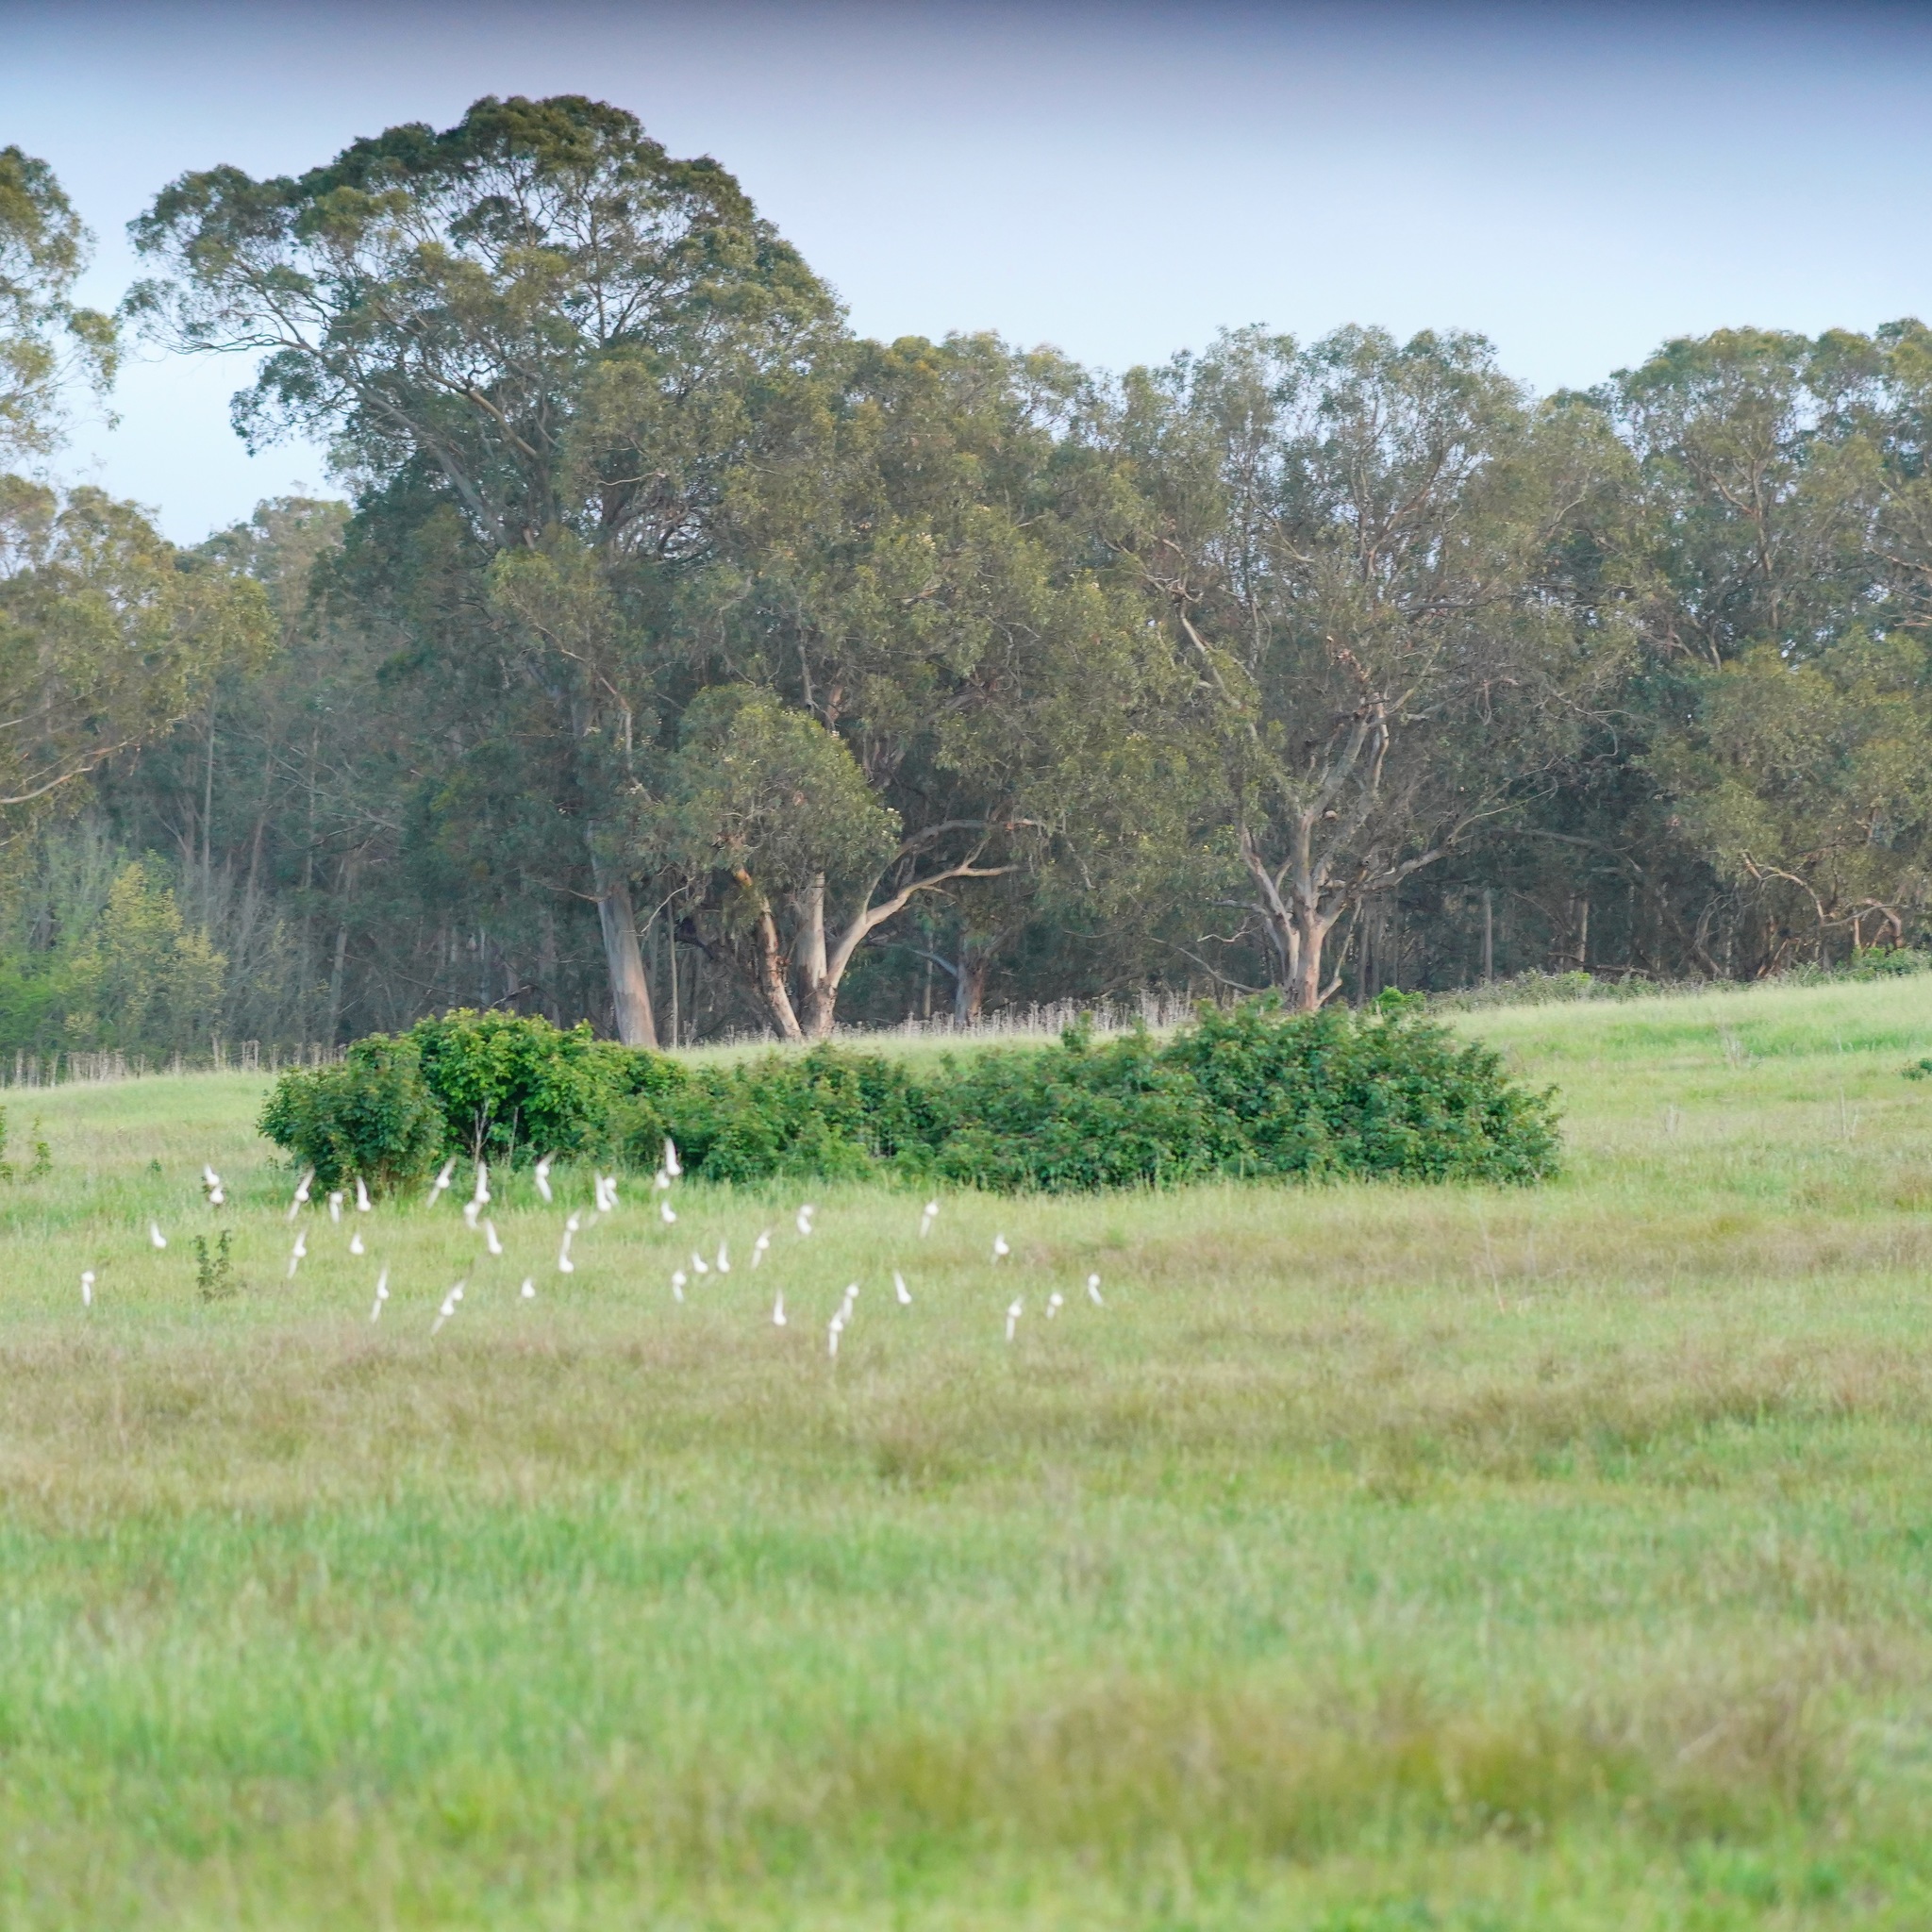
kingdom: Animalia
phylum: Chordata
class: Aves
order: Charadriiformes
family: Scolopacidae
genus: Calidris
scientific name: Calidris
